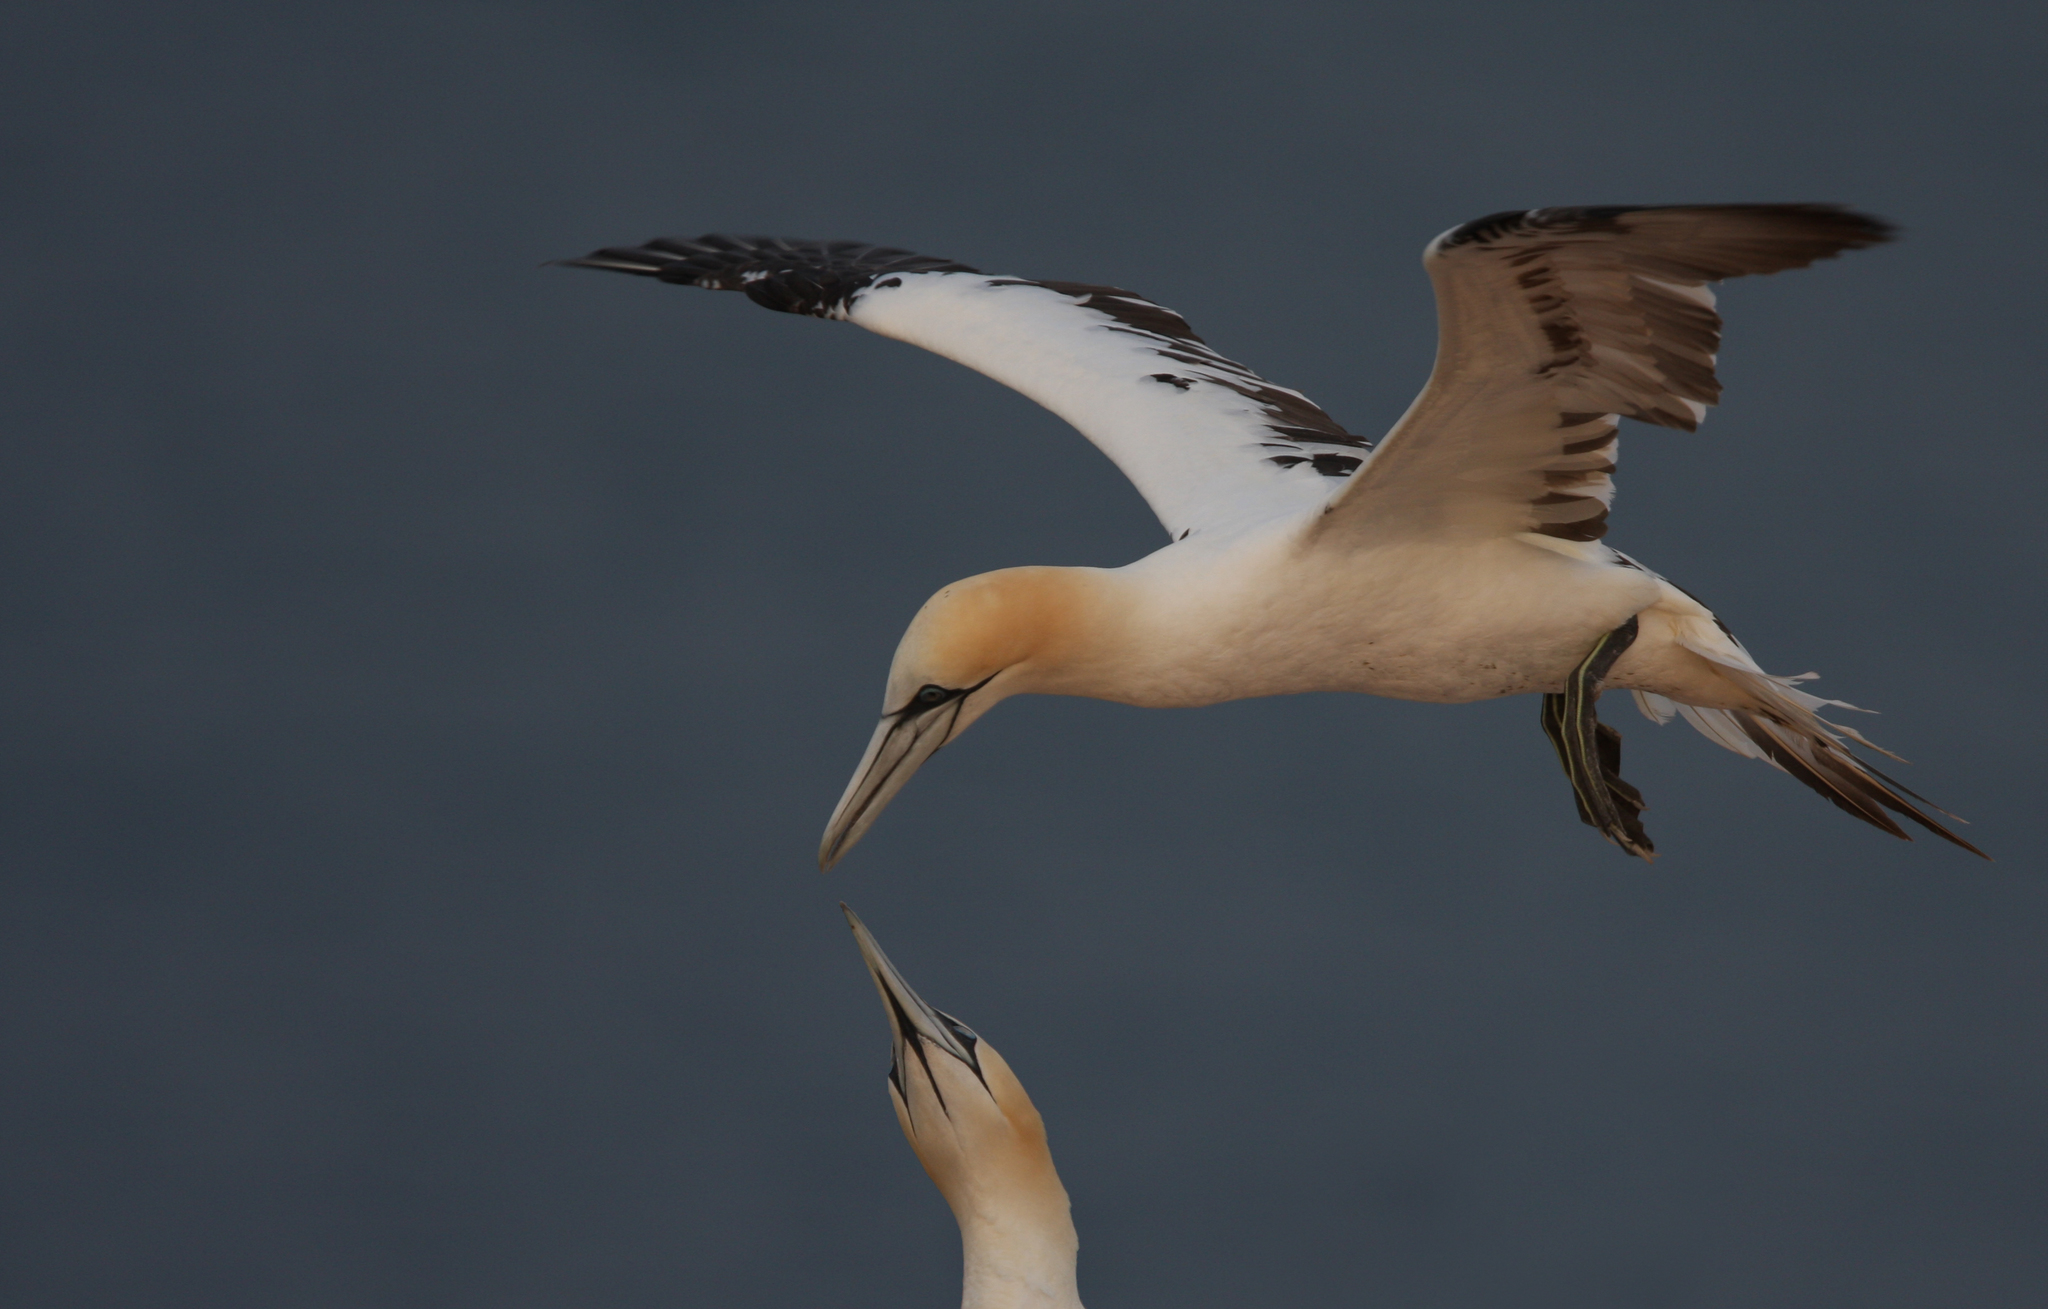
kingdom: Animalia
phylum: Chordata
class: Aves
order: Suliformes
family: Sulidae
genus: Morus
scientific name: Morus bassanus
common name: Northern gannet
